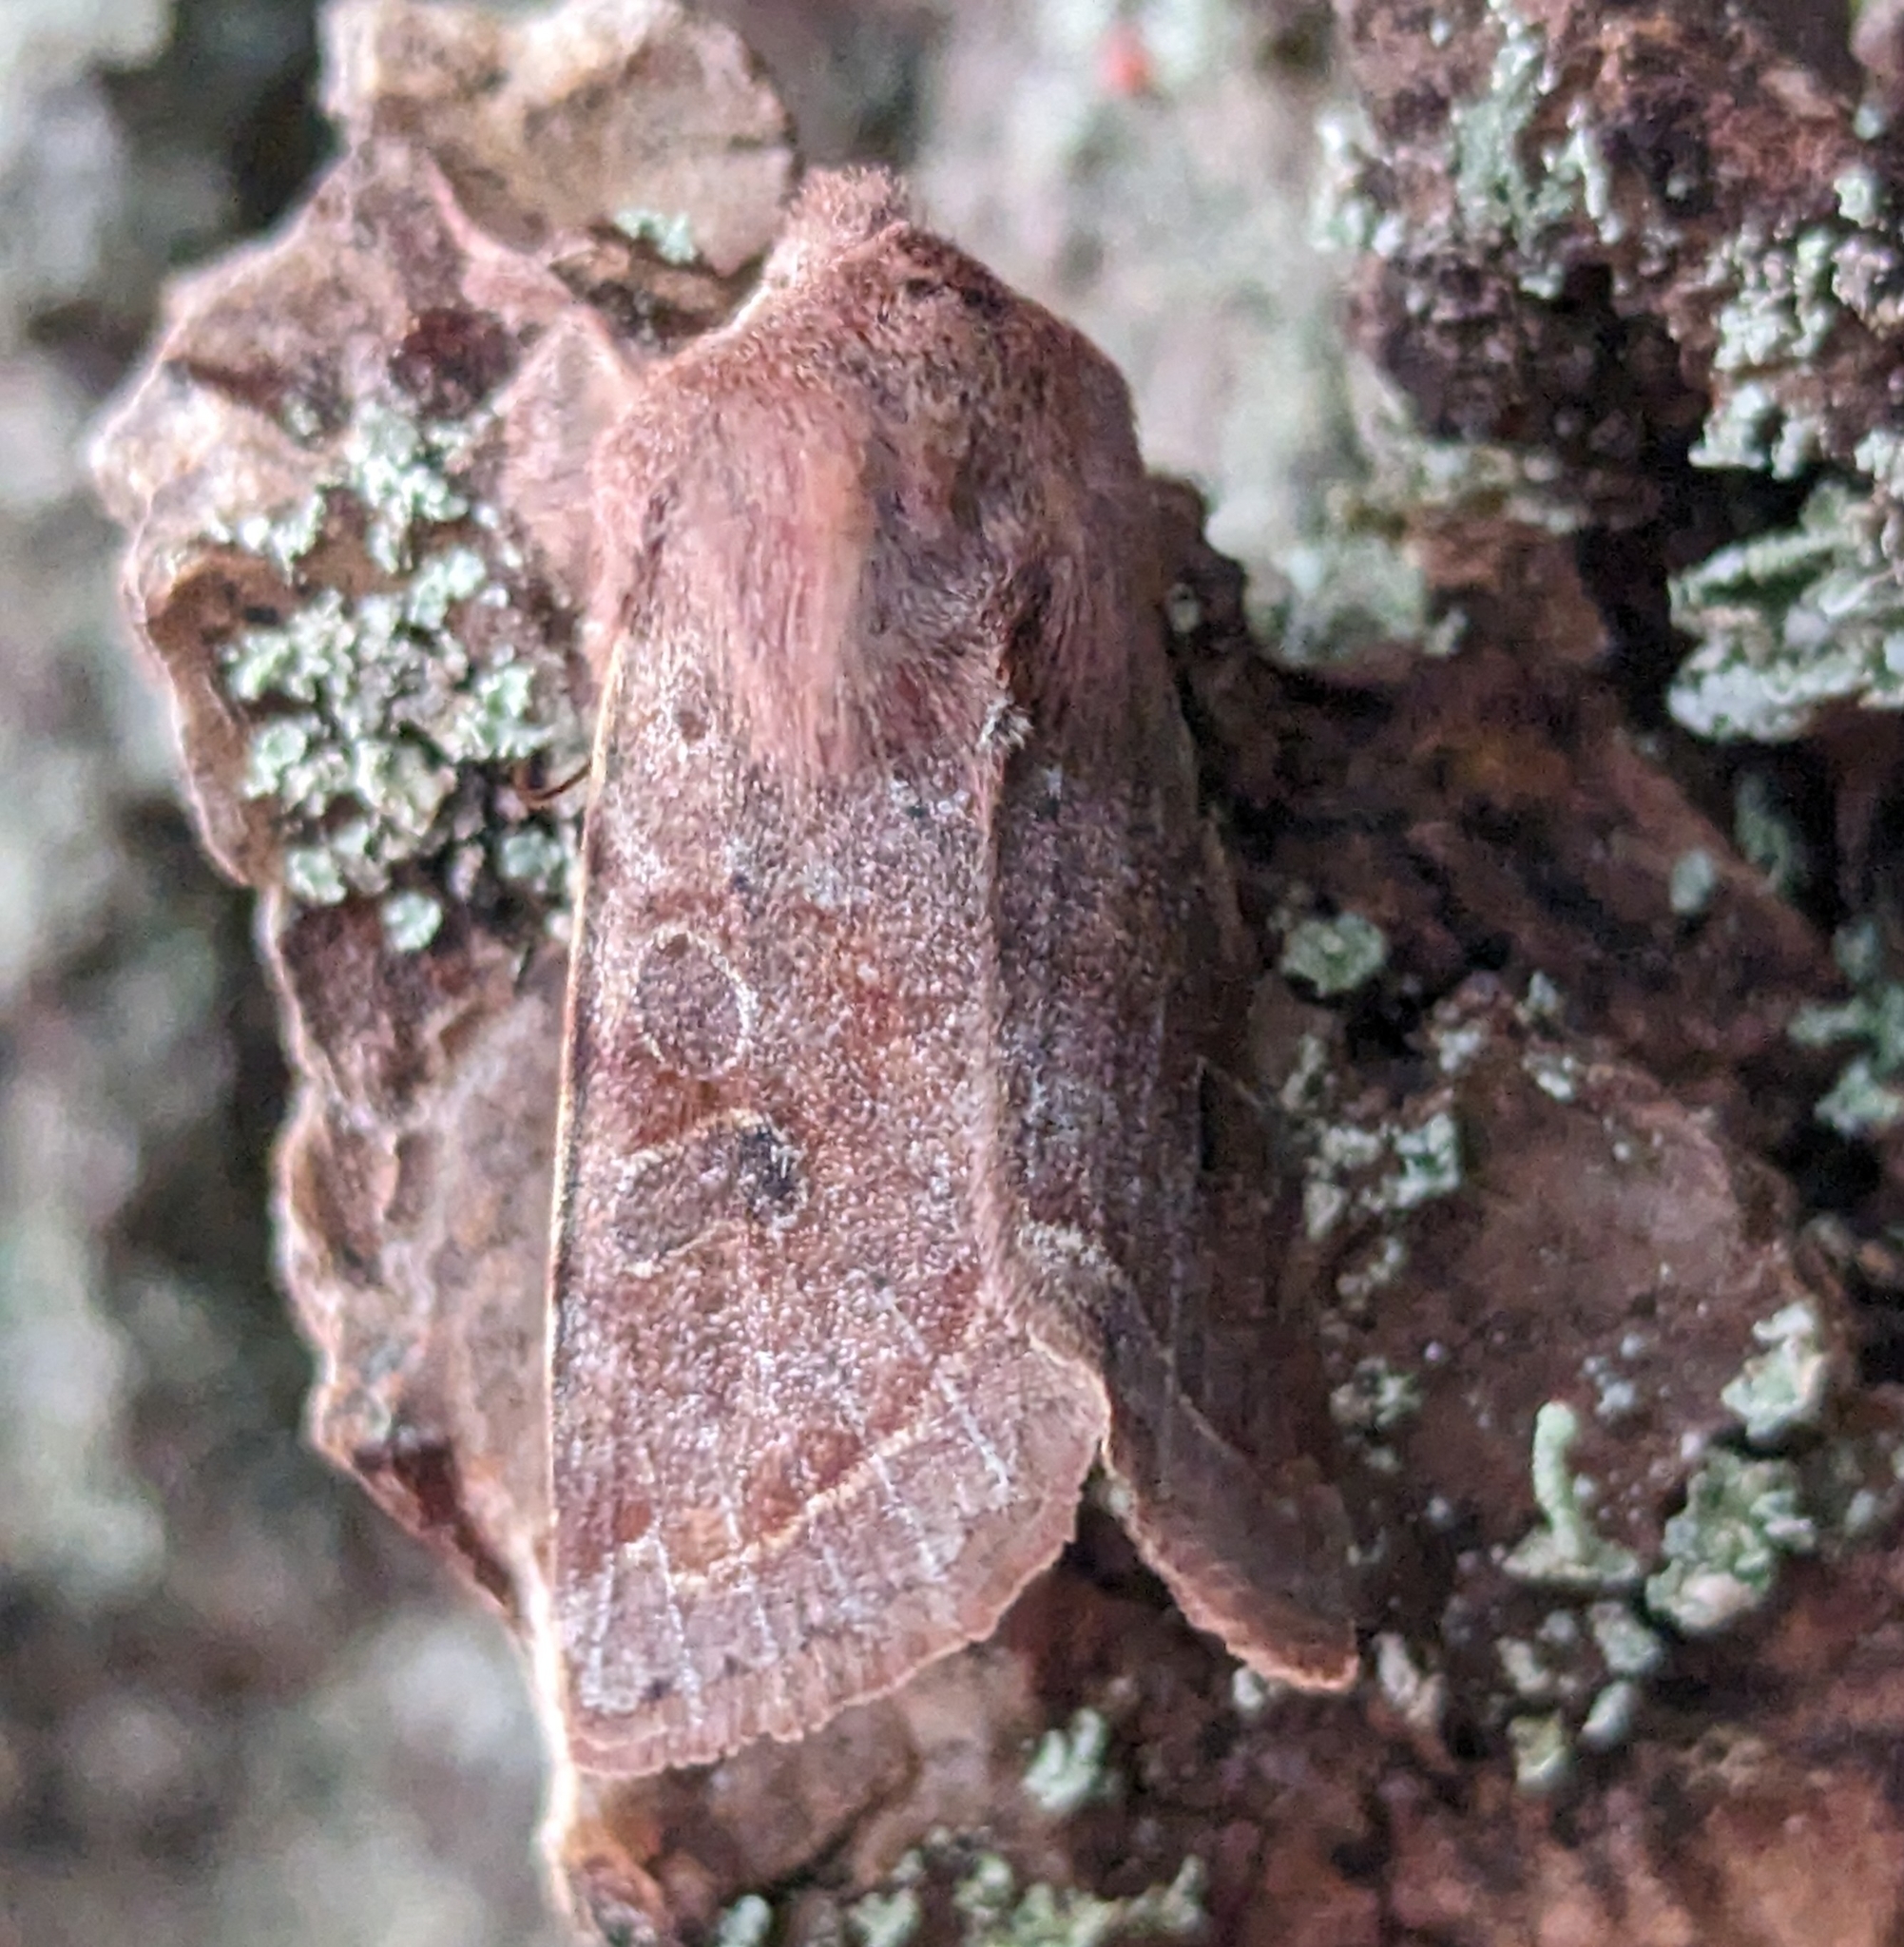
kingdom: Animalia
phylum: Arthropoda
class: Insecta
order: Lepidoptera
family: Noctuidae
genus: Orthosia
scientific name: Orthosia hibisci
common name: Green fruitworm
